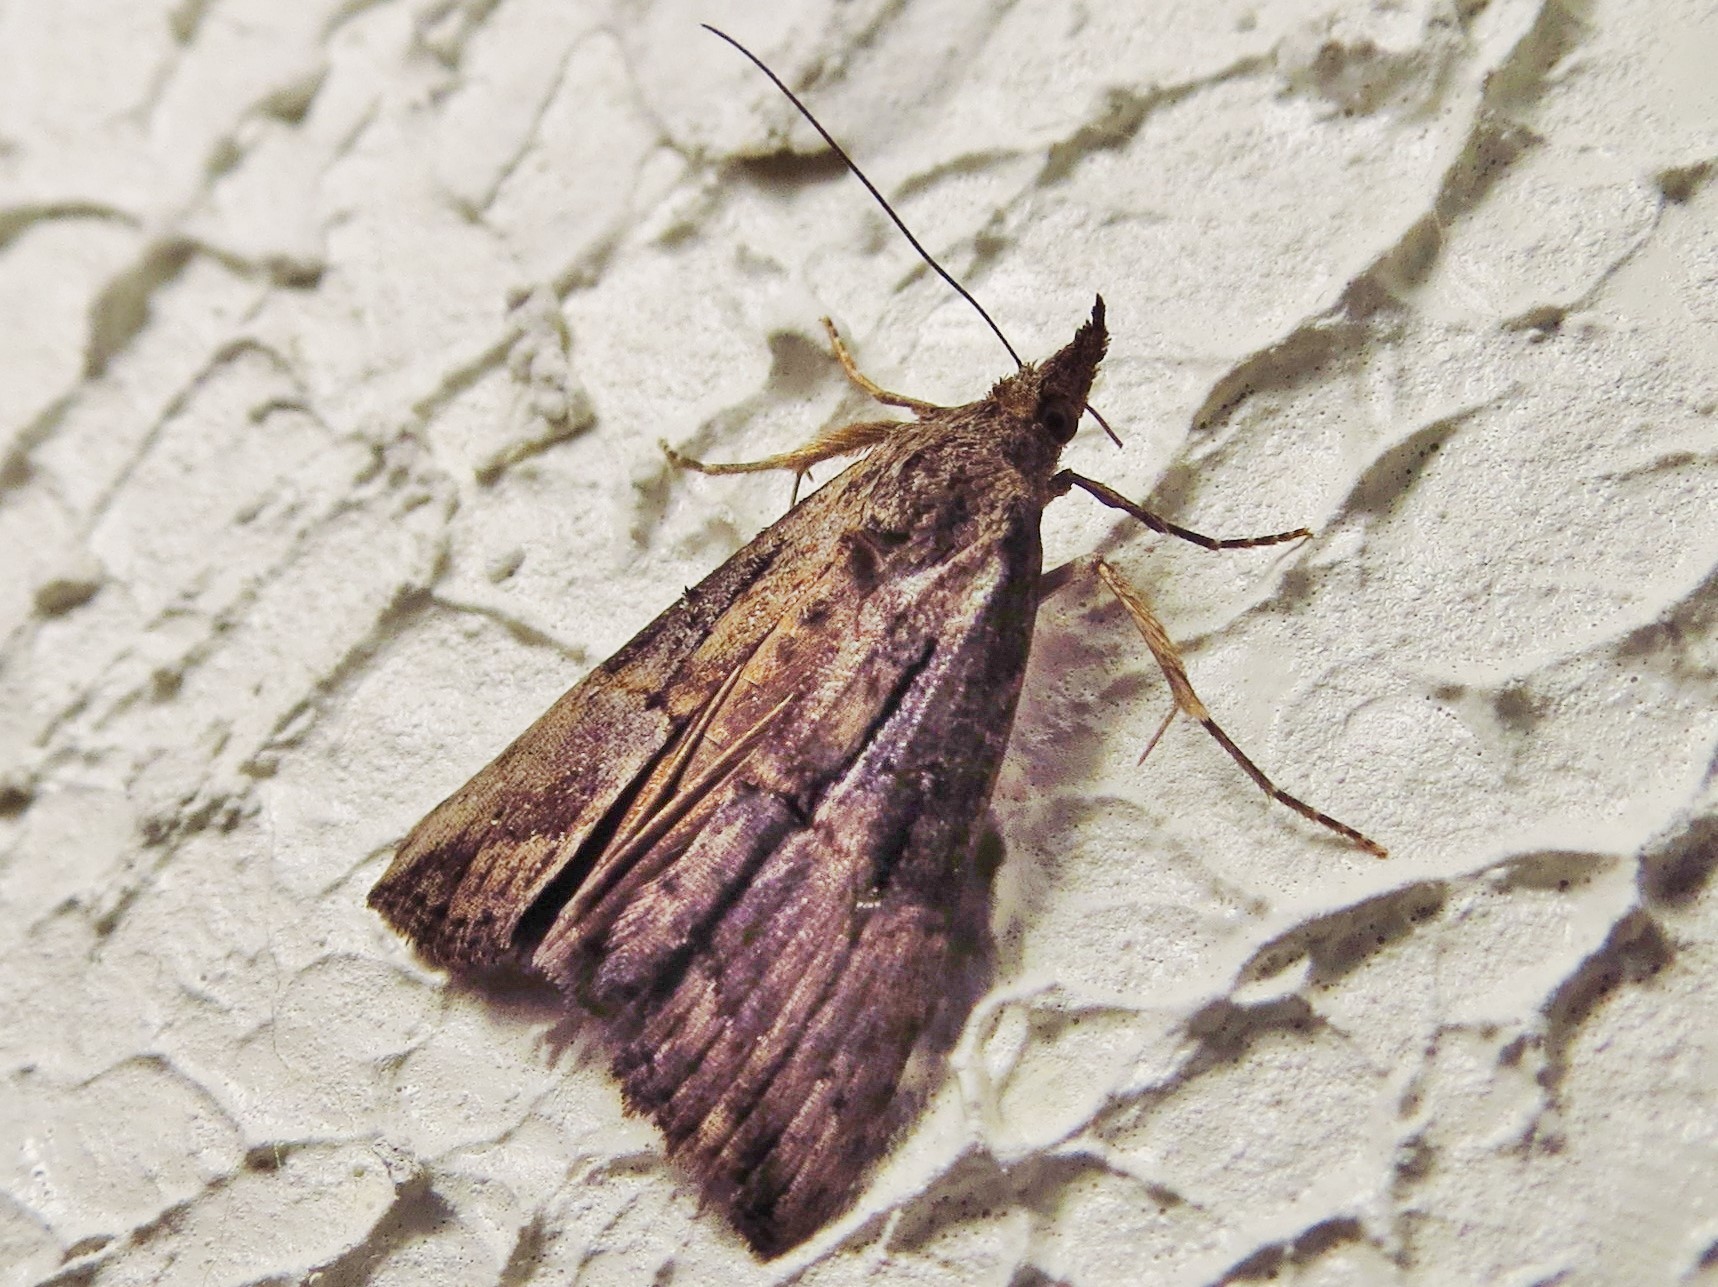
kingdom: Animalia
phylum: Arthropoda
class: Insecta
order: Lepidoptera
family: Erebidae
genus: Hypena
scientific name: Hypena scabra
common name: Green cloverworm
